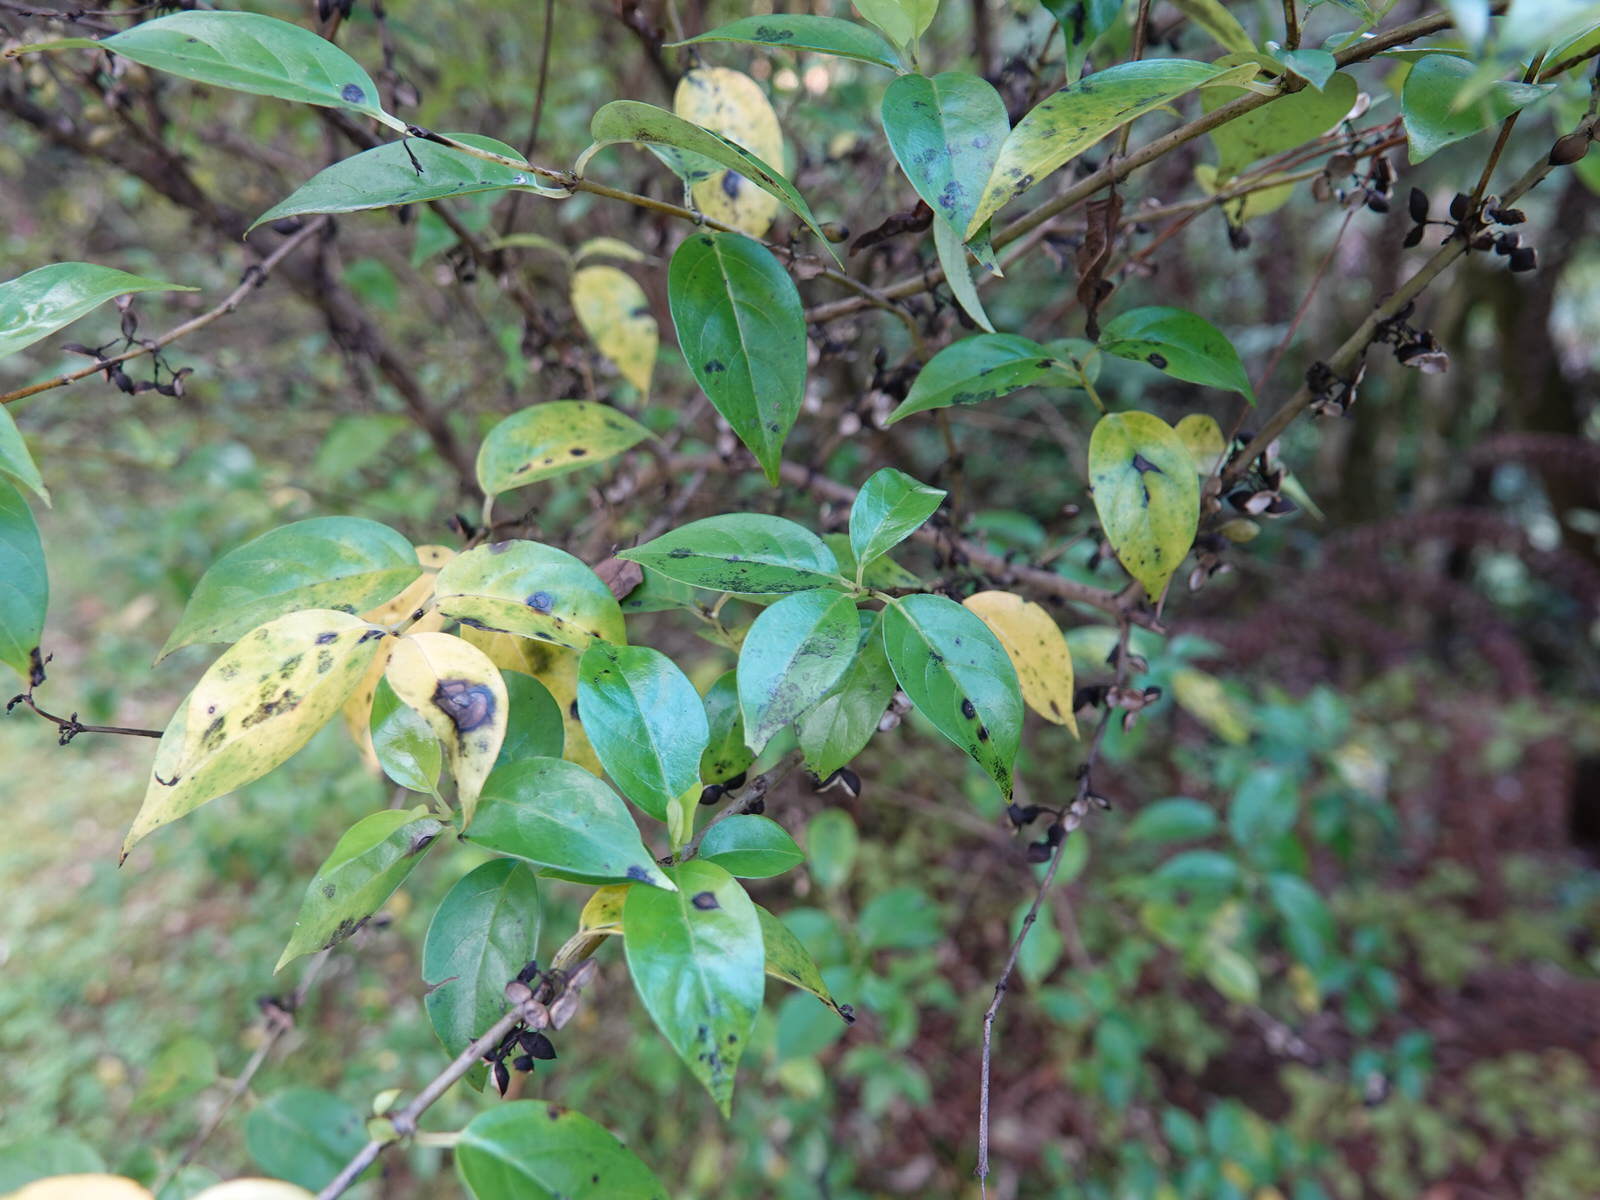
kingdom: Plantae
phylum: Tracheophyta
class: Magnoliopsida
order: Gentianales
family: Loganiaceae
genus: Geniostoma
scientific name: Geniostoma ligustrifolium
